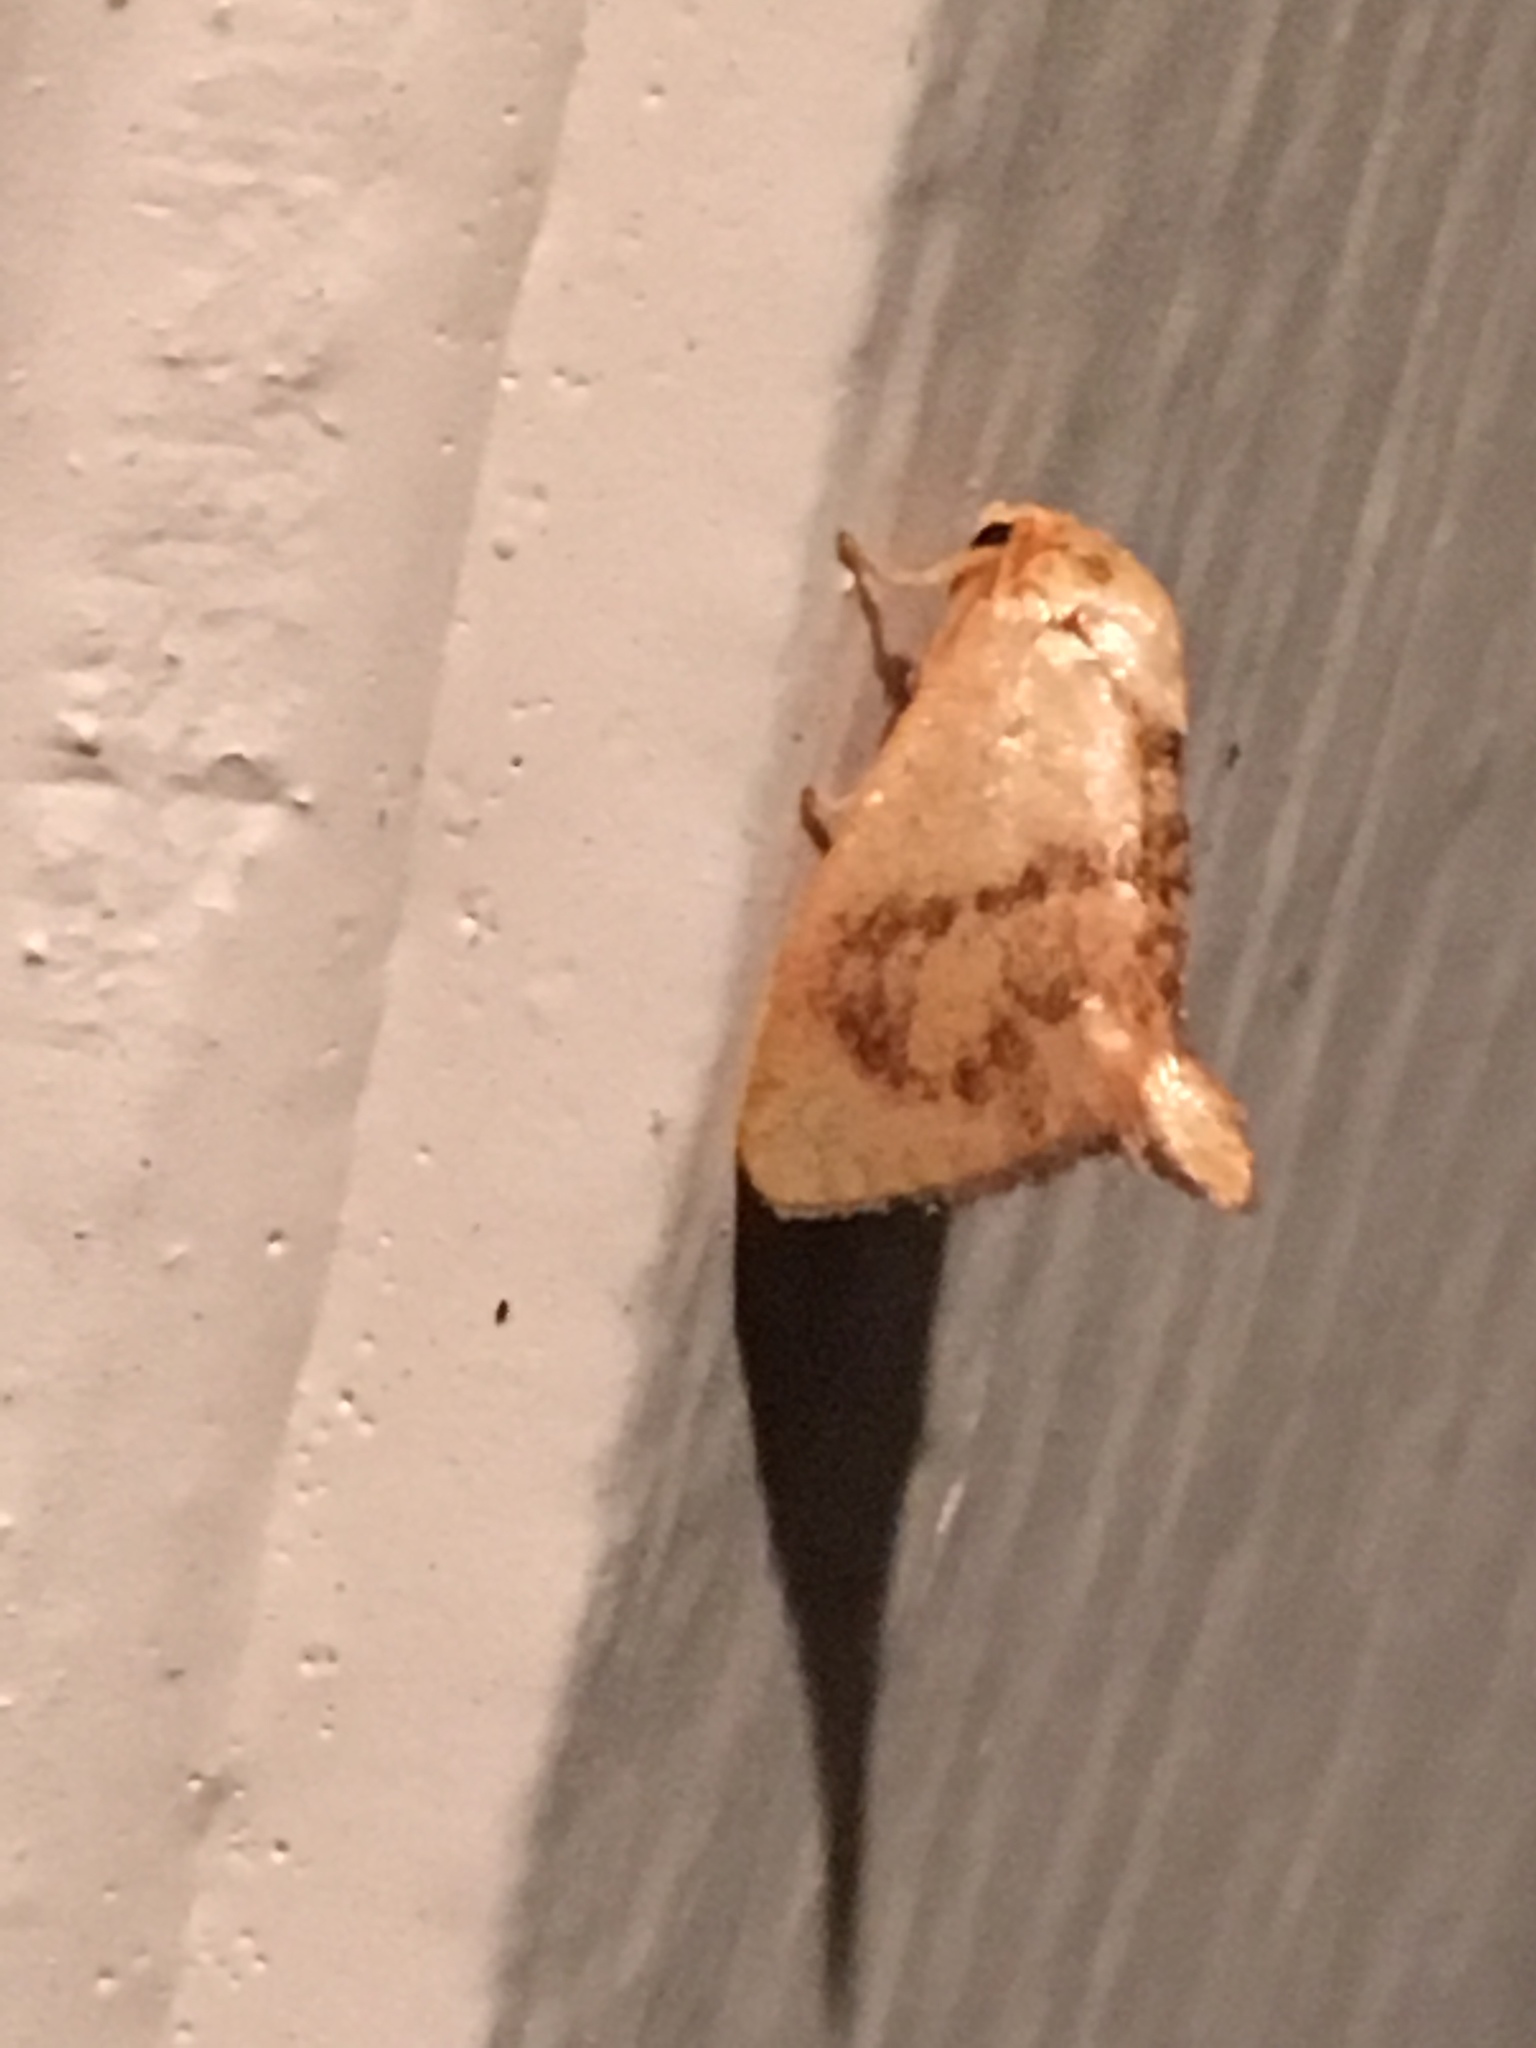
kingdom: Animalia
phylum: Arthropoda
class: Insecta
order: Lepidoptera
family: Limacodidae
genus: Tortricidia
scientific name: Tortricidia flexuosa
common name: Abbreviated button slug moth
